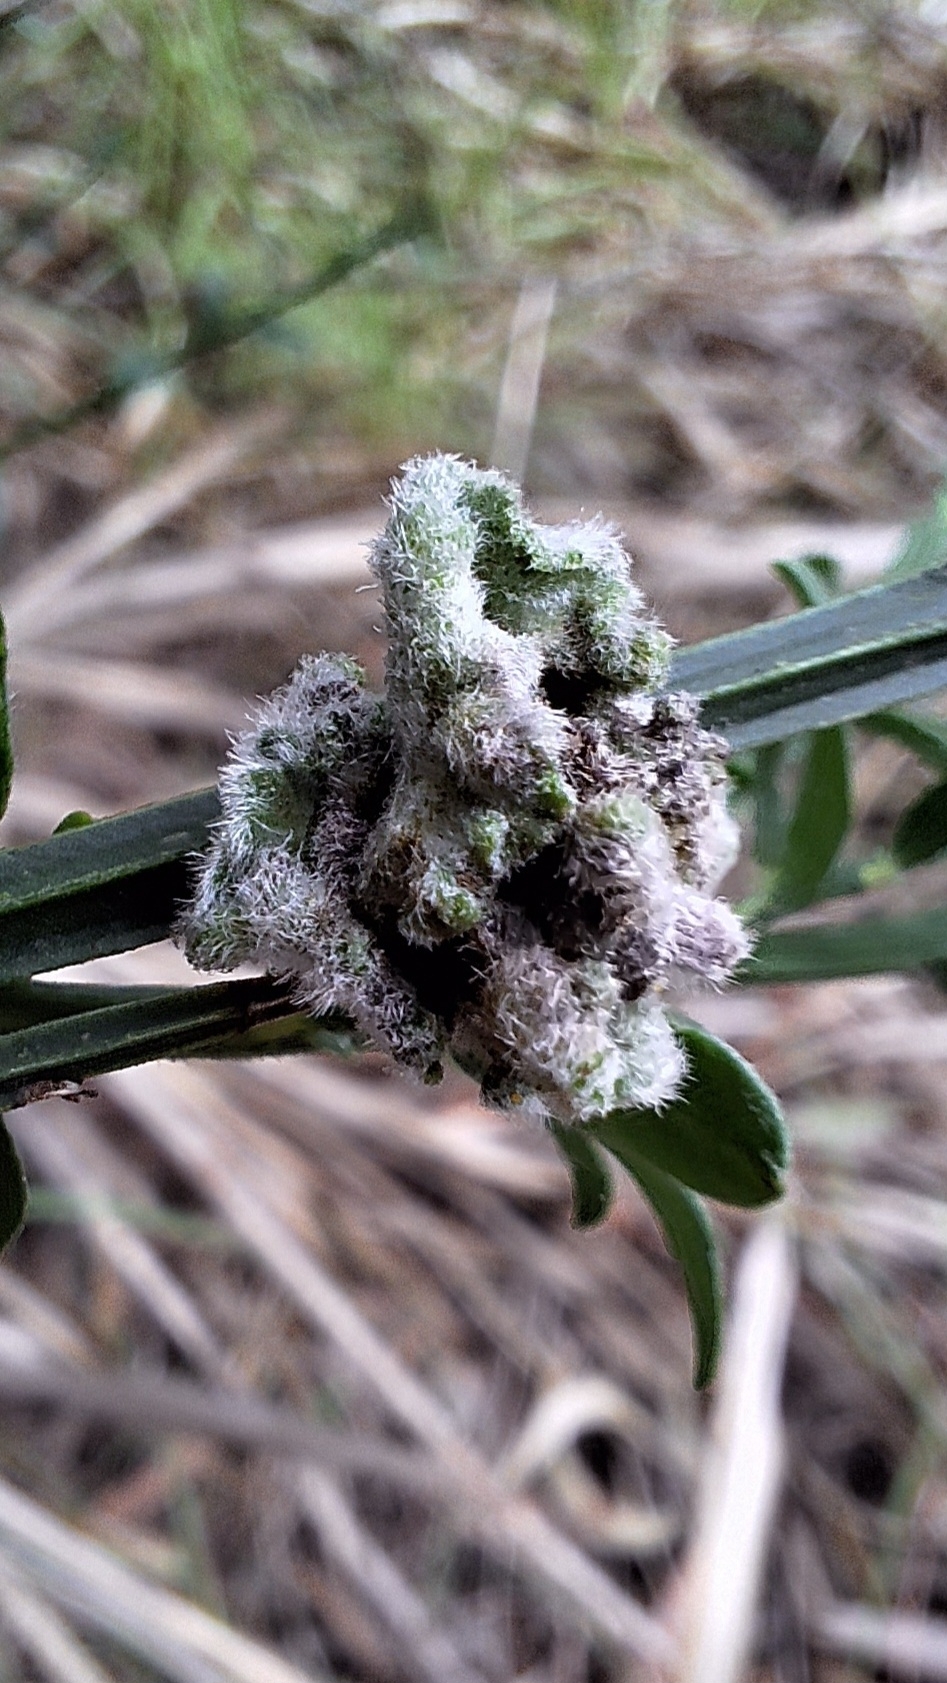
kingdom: Animalia
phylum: Arthropoda
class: Arachnida
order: Trombidiformes
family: Eriophyidae
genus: Aceria
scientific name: Aceria genistae
